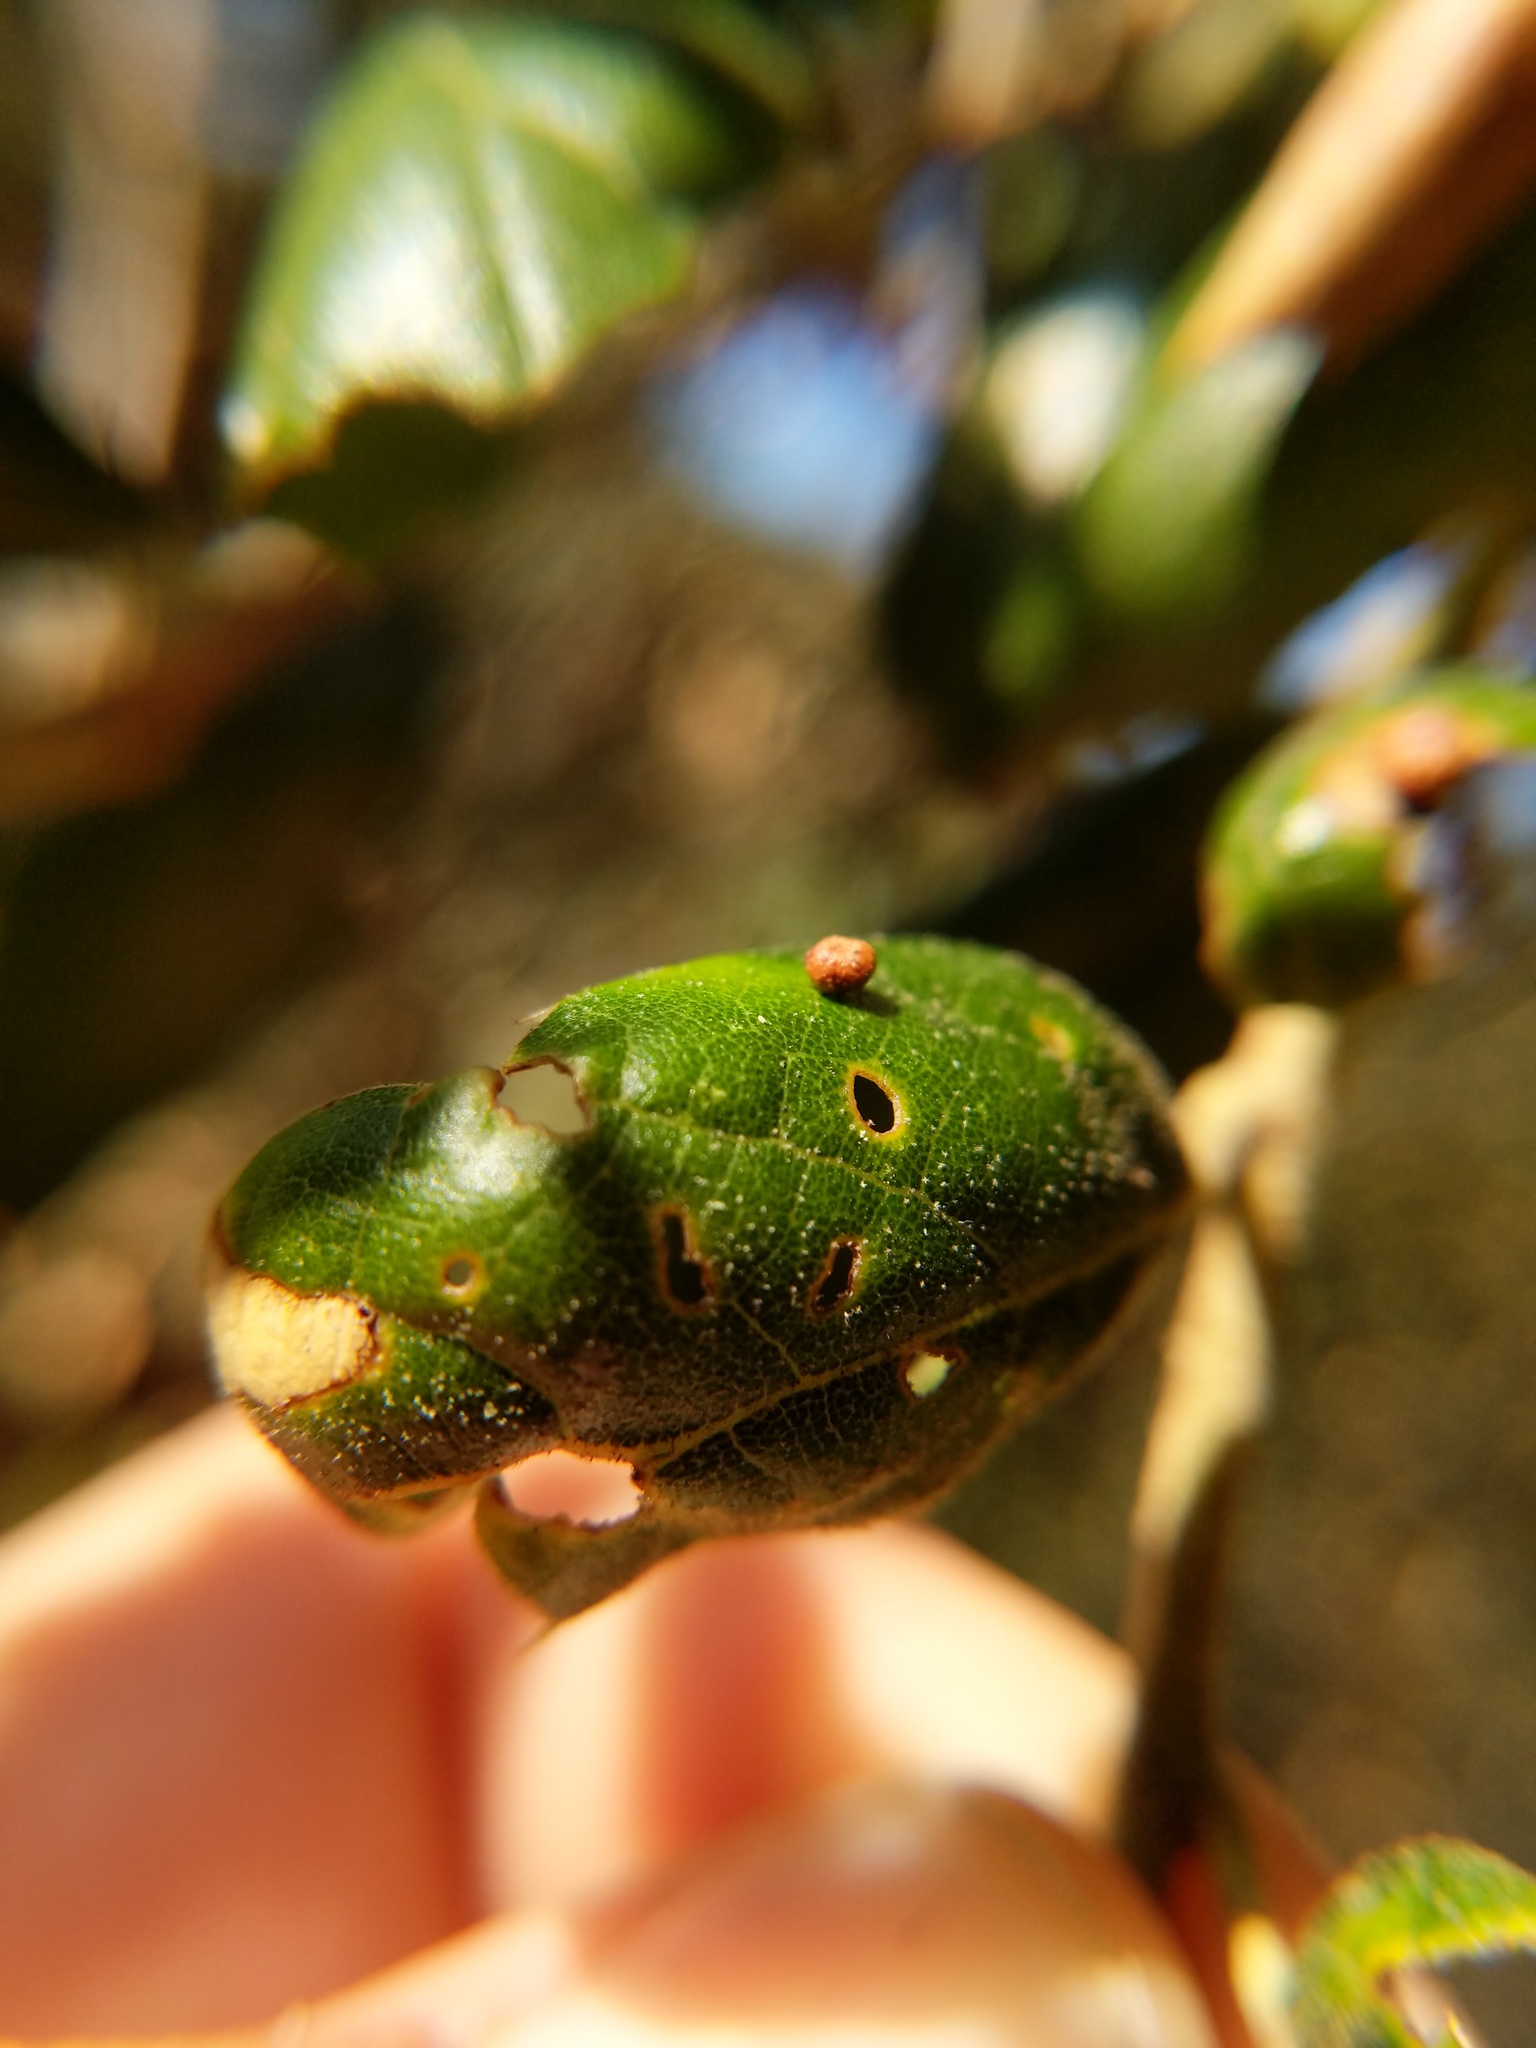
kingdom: Animalia
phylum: Arthropoda
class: Insecta
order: Hymenoptera
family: Cynipidae
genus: Dryocosmus
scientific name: Dryocosmus
